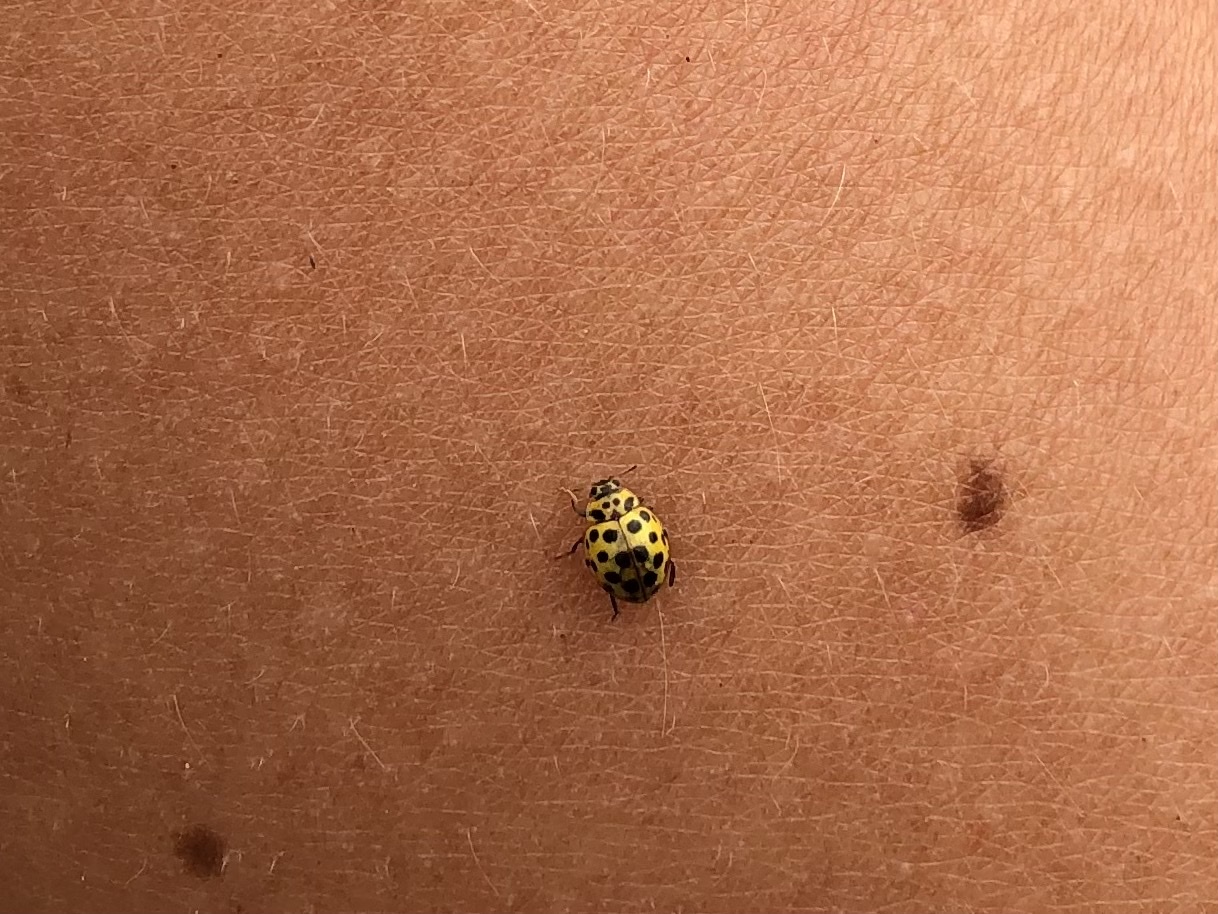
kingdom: Animalia
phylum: Arthropoda
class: Insecta
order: Coleoptera
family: Coccinellidae
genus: Psyllobora
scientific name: Psyllobora vigintiduopunctata
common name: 22-spot ladybird
